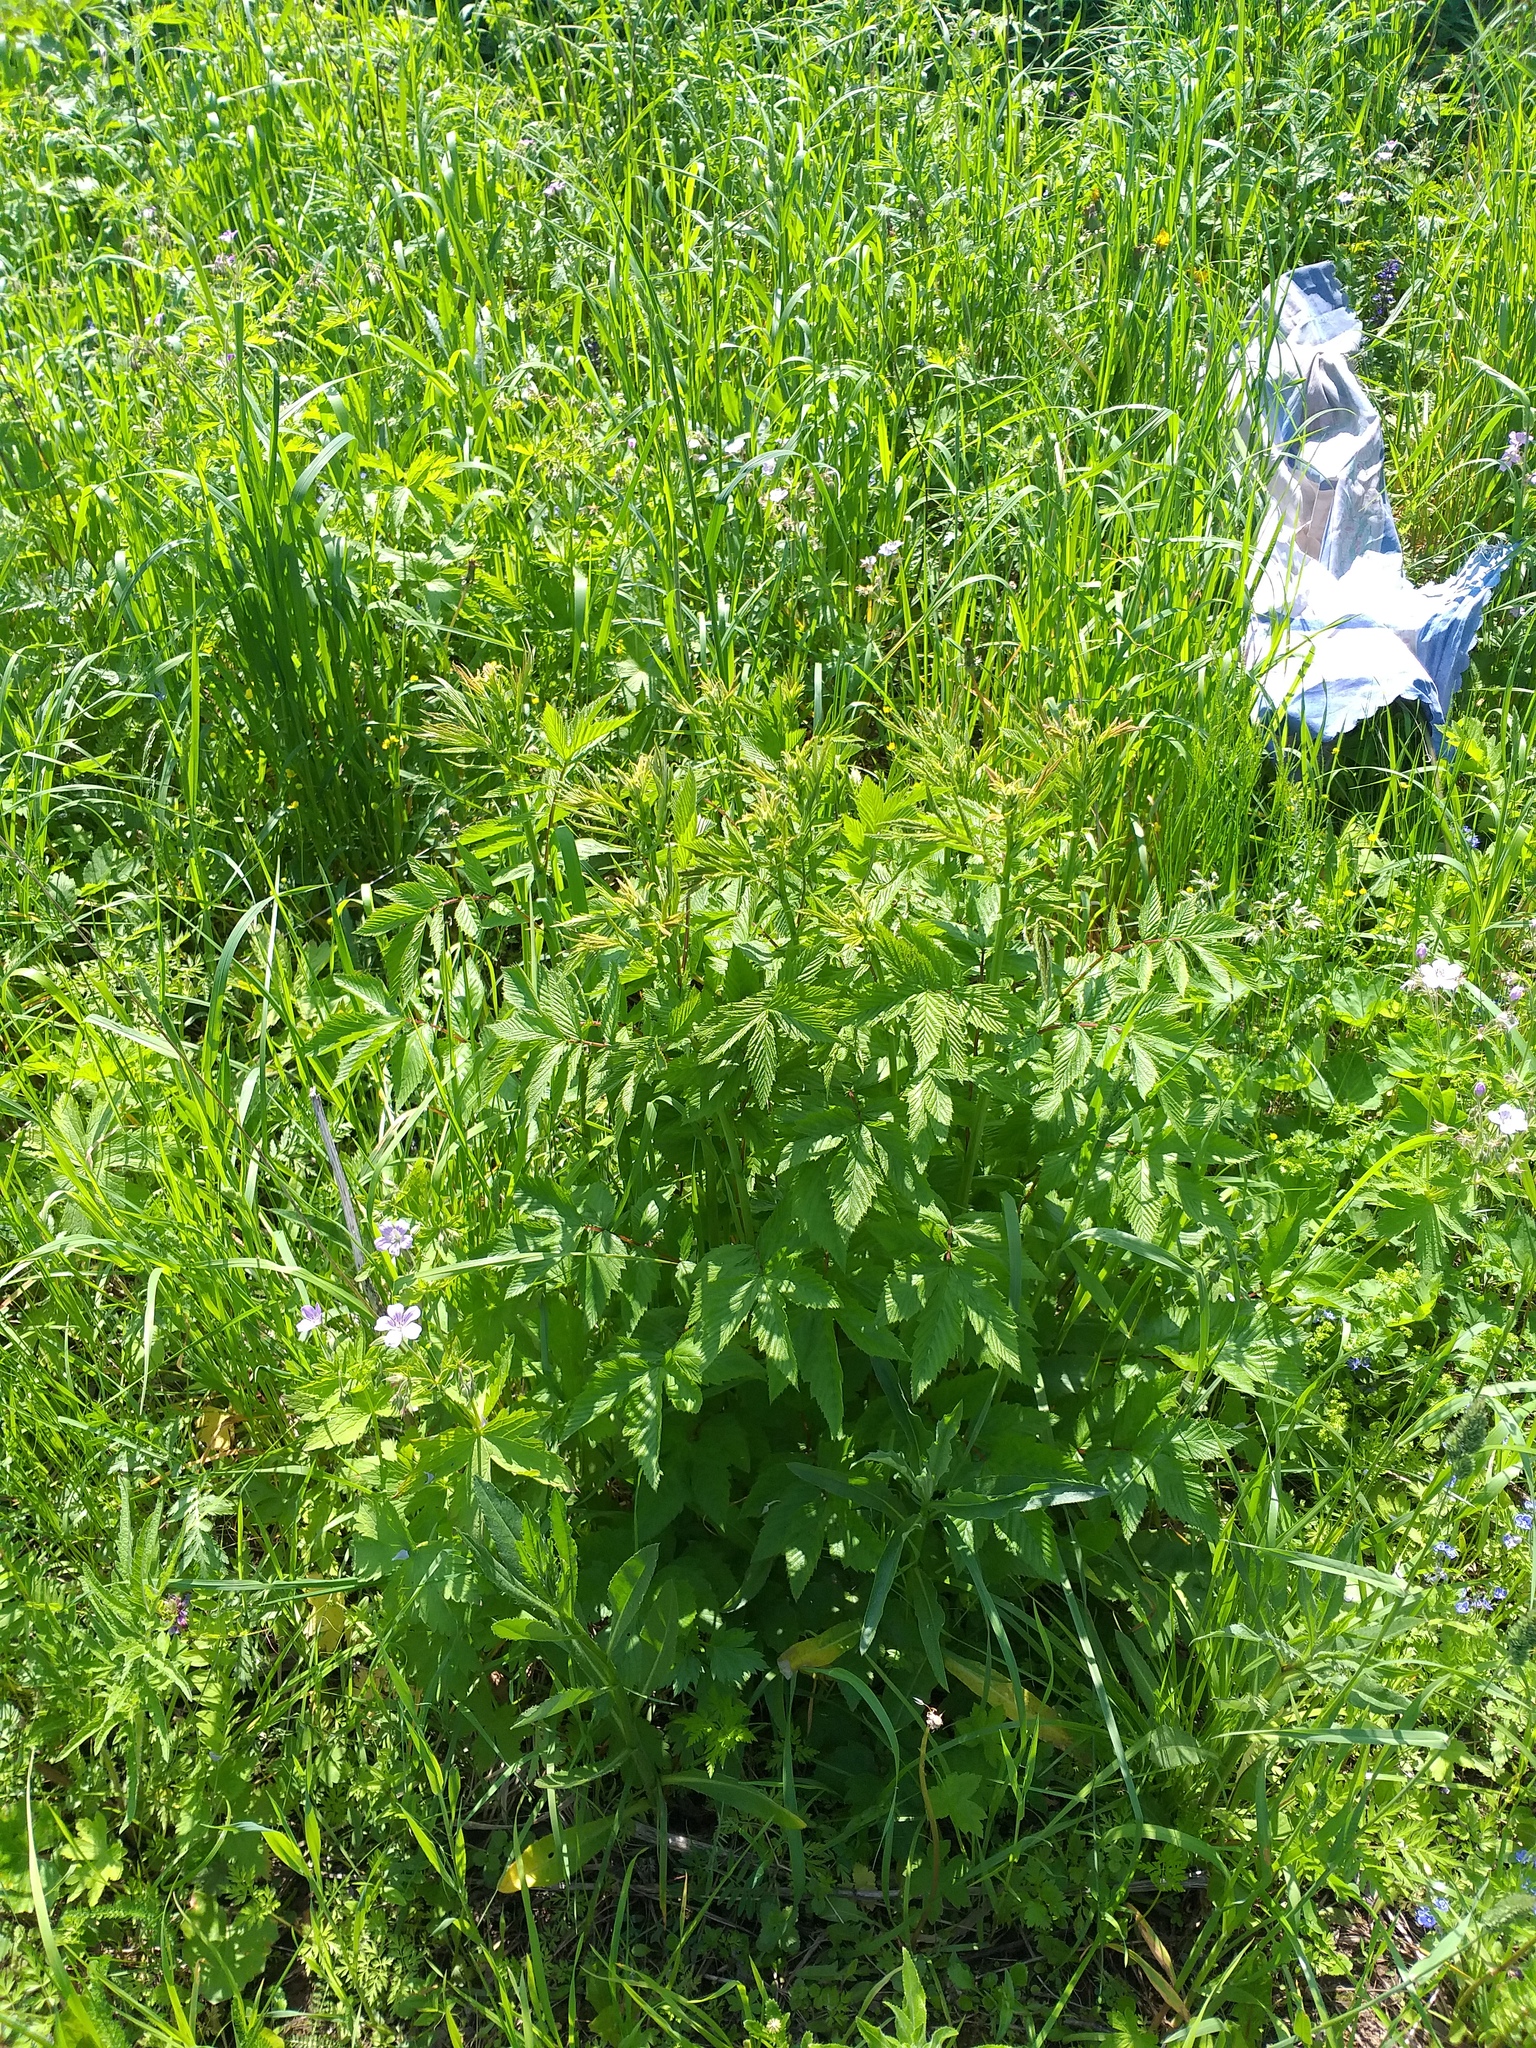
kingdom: Plantae
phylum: Tracheophyta
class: Magnoliopsida
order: Rosales
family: Rosaceae
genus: Filipendula
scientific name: Filipendula ulmaria
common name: Meadowsweet
